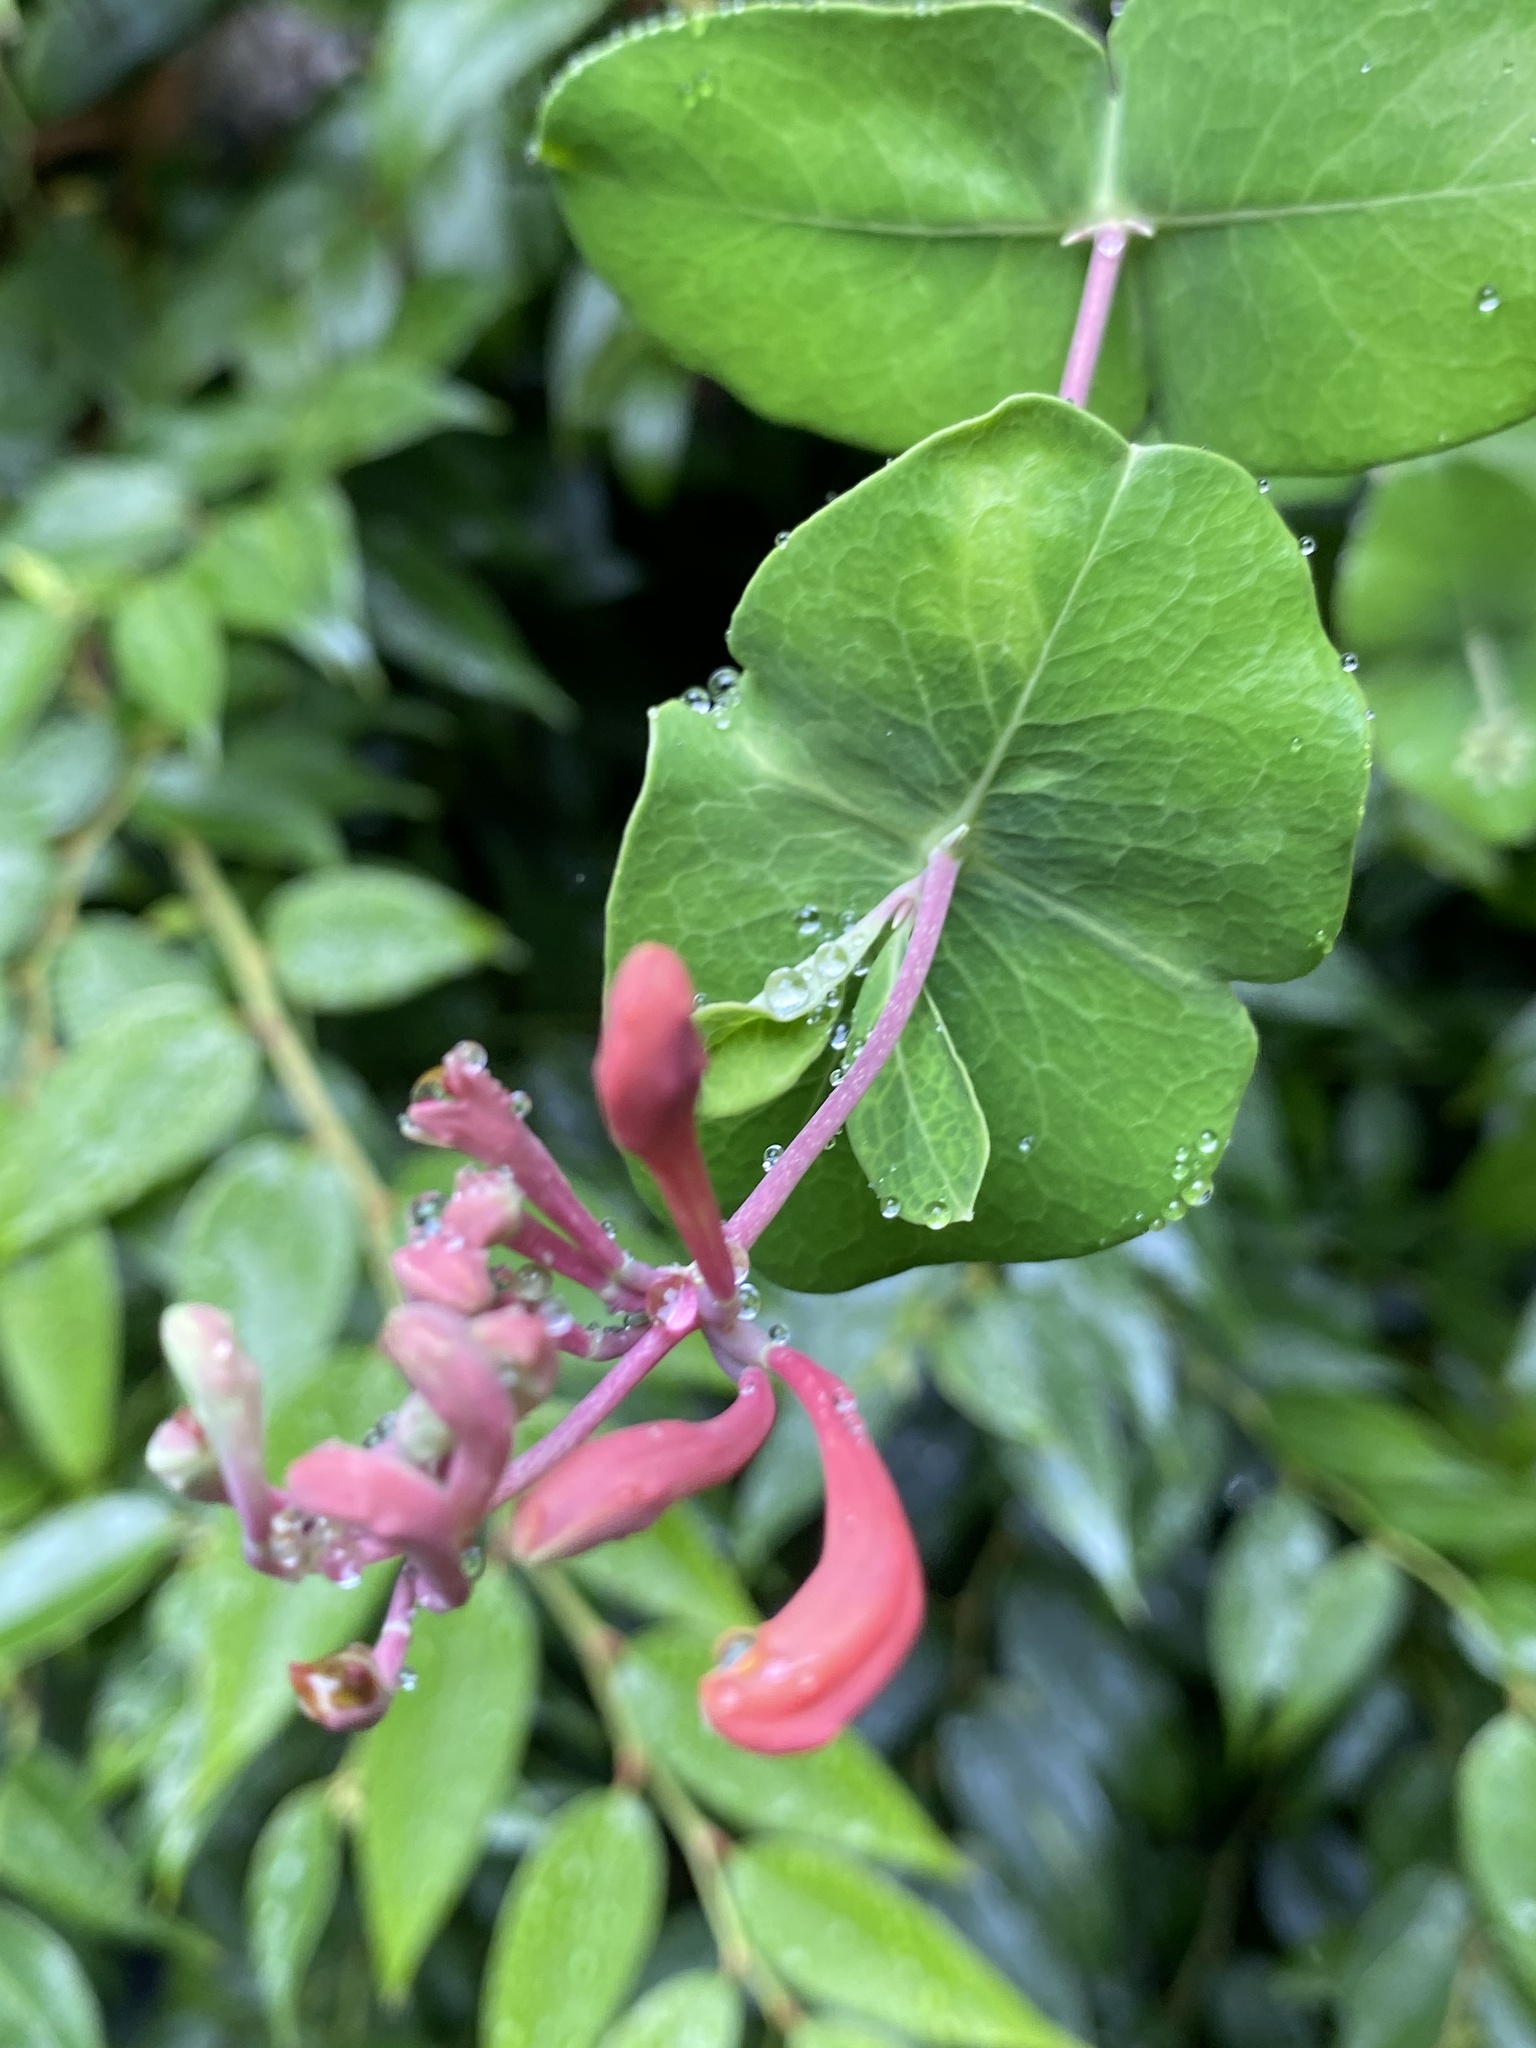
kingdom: Plantae
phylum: Tracheophyta
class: Magnoliopsida
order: Dipsacales
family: Caprifoliaceae
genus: Lonicera
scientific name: Lonicera sempervirens
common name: Coral honeysuckle
